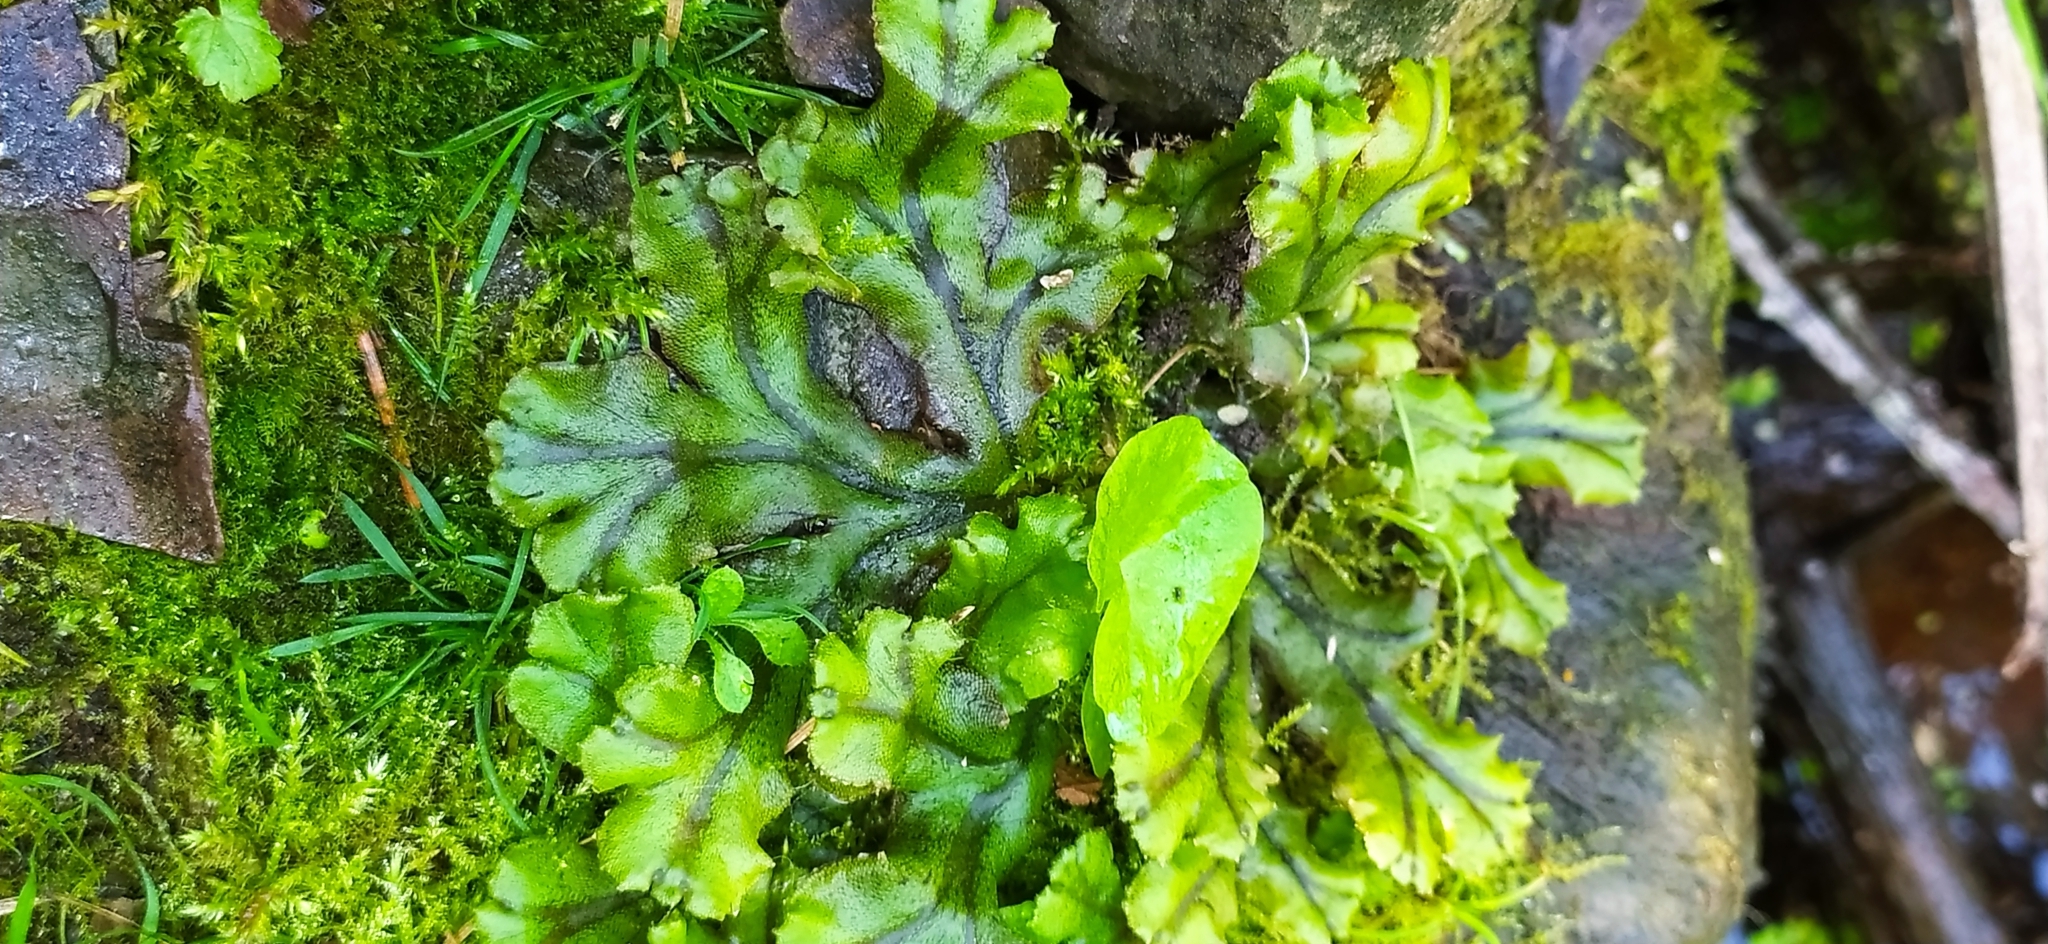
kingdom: Plantae
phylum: Marchantiophyta
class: Marchantiopsida
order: Marchantiales
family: Marchantiaceae
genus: Marchantia
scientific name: Marchantia polymorpha
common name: Common liverwort
